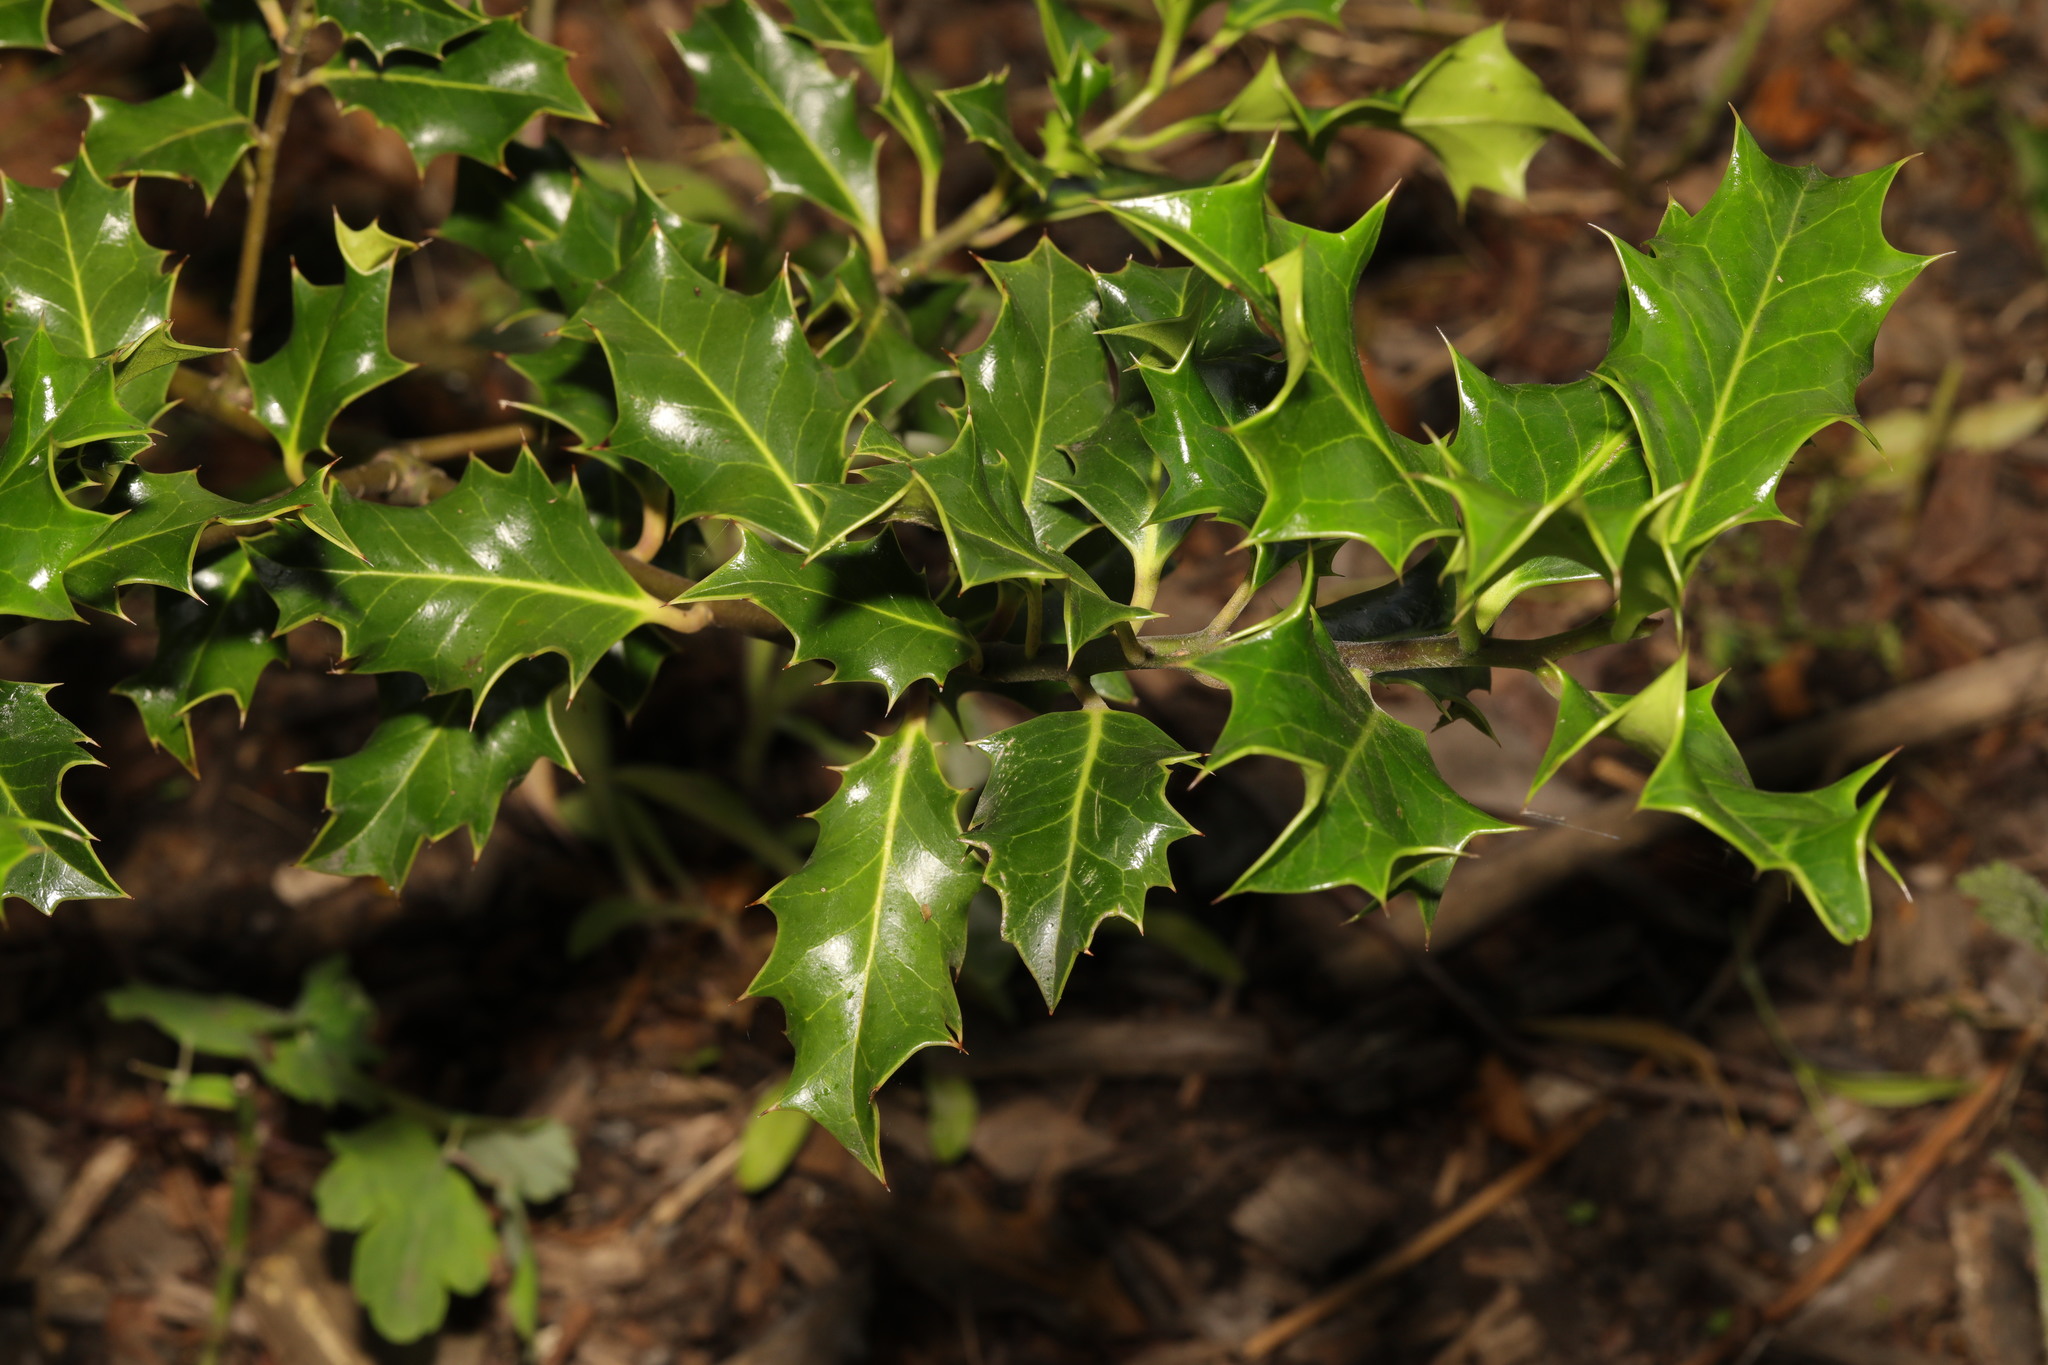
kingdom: Plantae
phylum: Tracheophyta
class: Magnoliopsida
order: Aquifoliales
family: Aquifoliaceae
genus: Ilex
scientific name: Ilex aquifolium
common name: English holly
